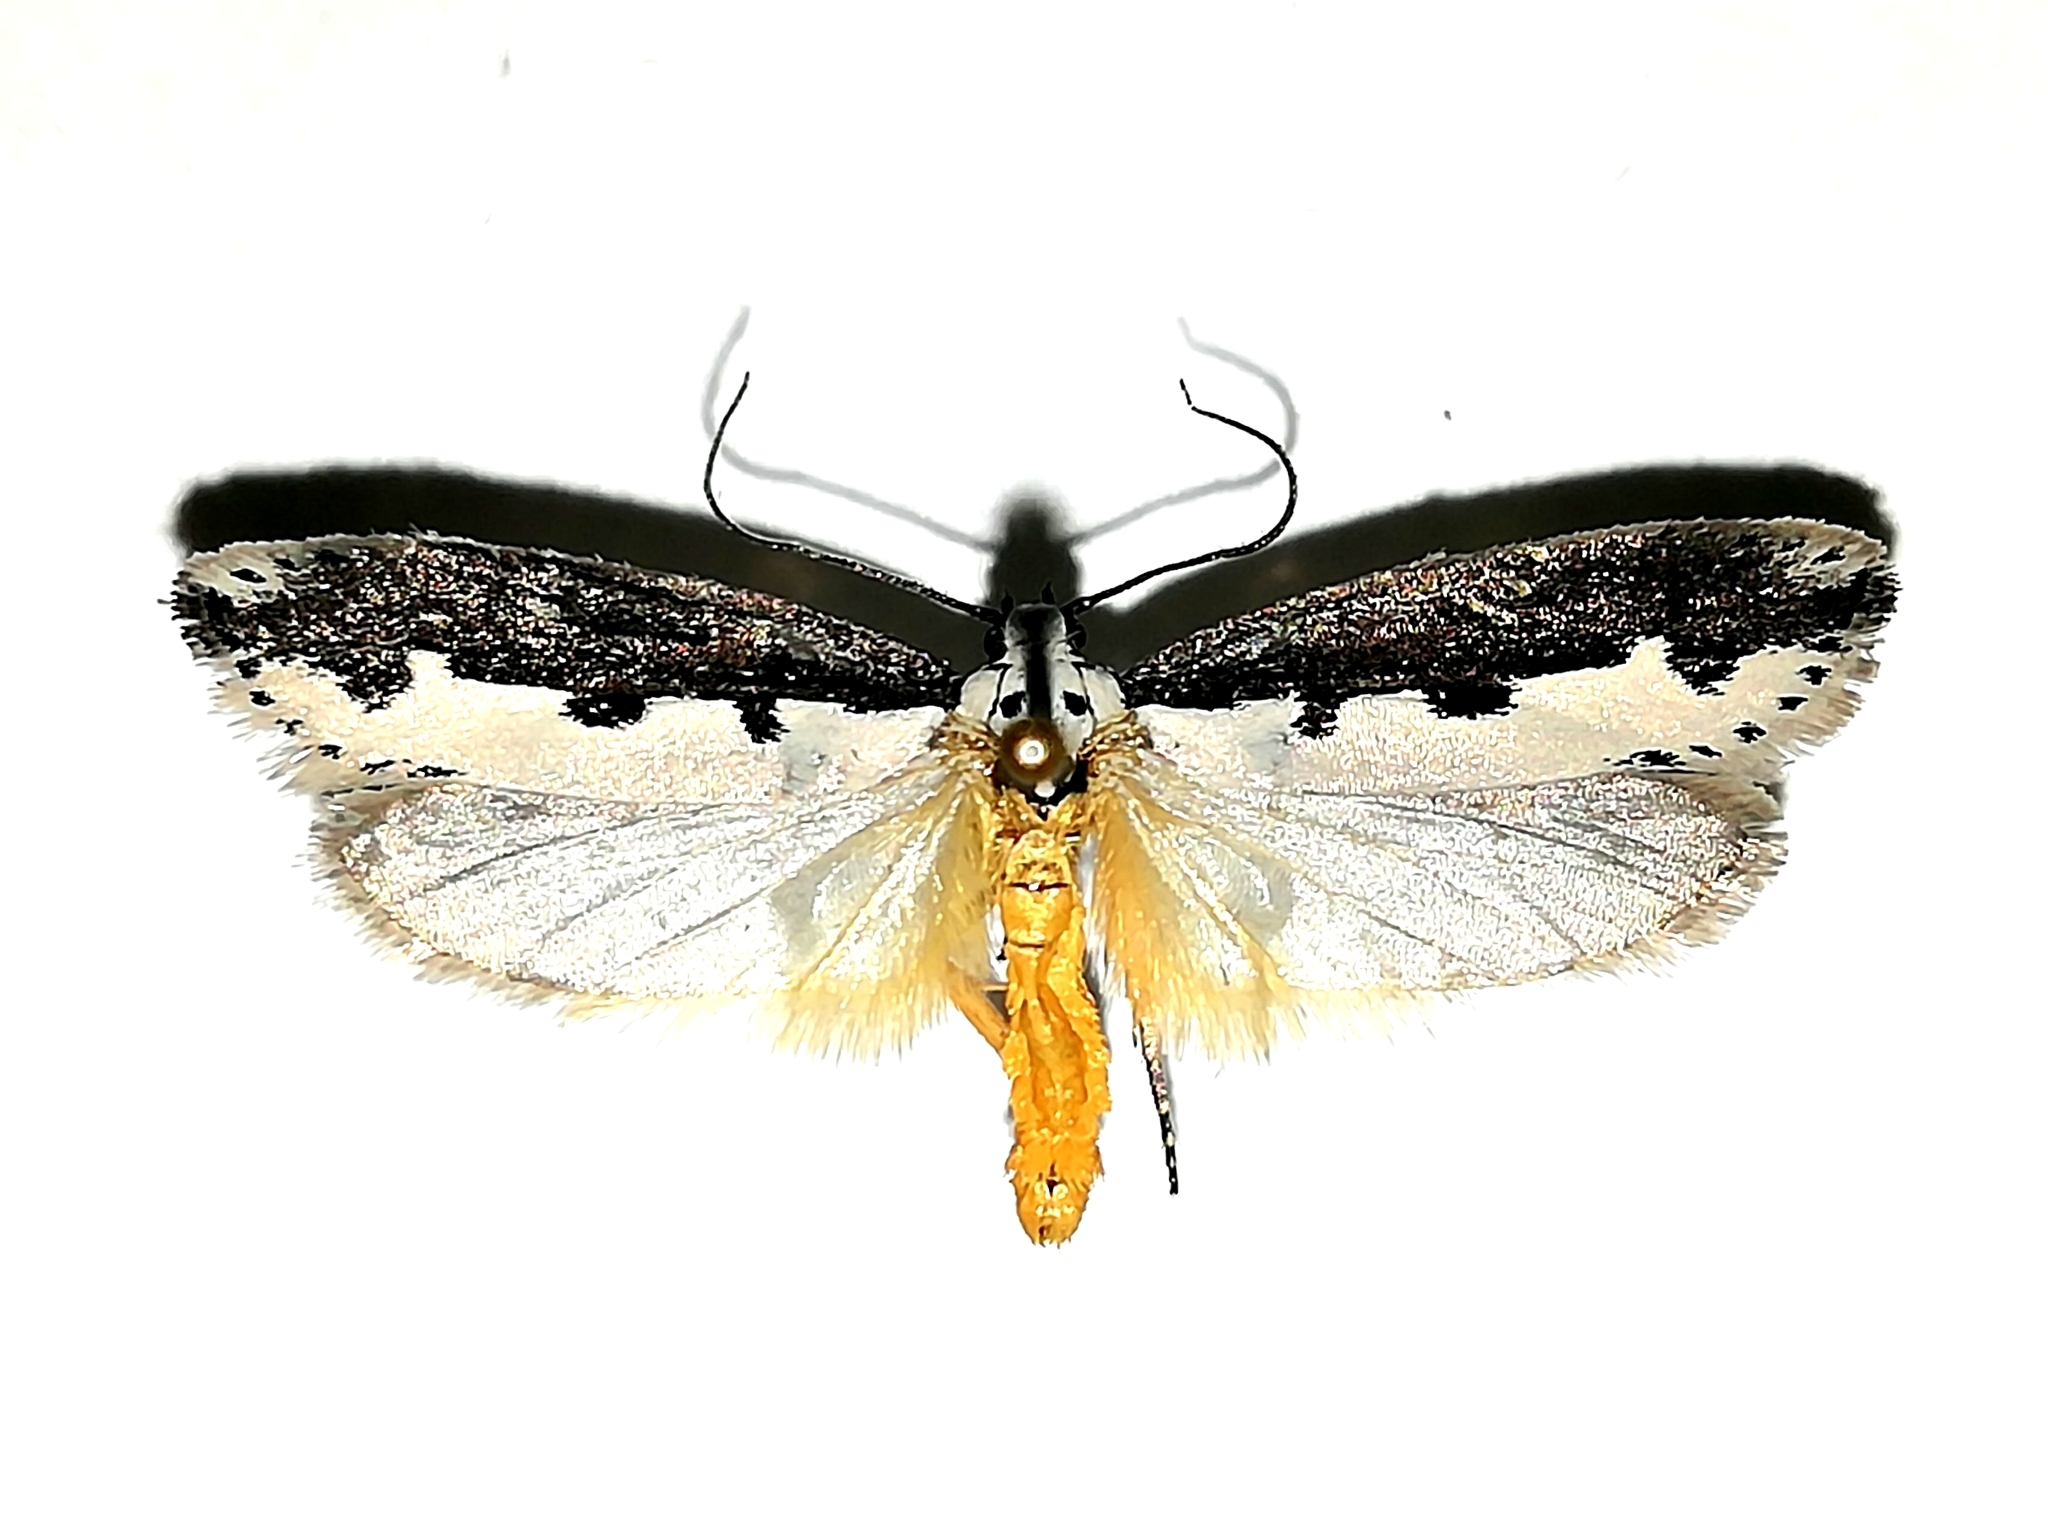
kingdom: Animalia
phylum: Arthropoda
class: Insecta
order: Lepidoptera
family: Ethmiidae
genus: Ethmia
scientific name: Ethmia bipunctella
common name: Bordered ermel
